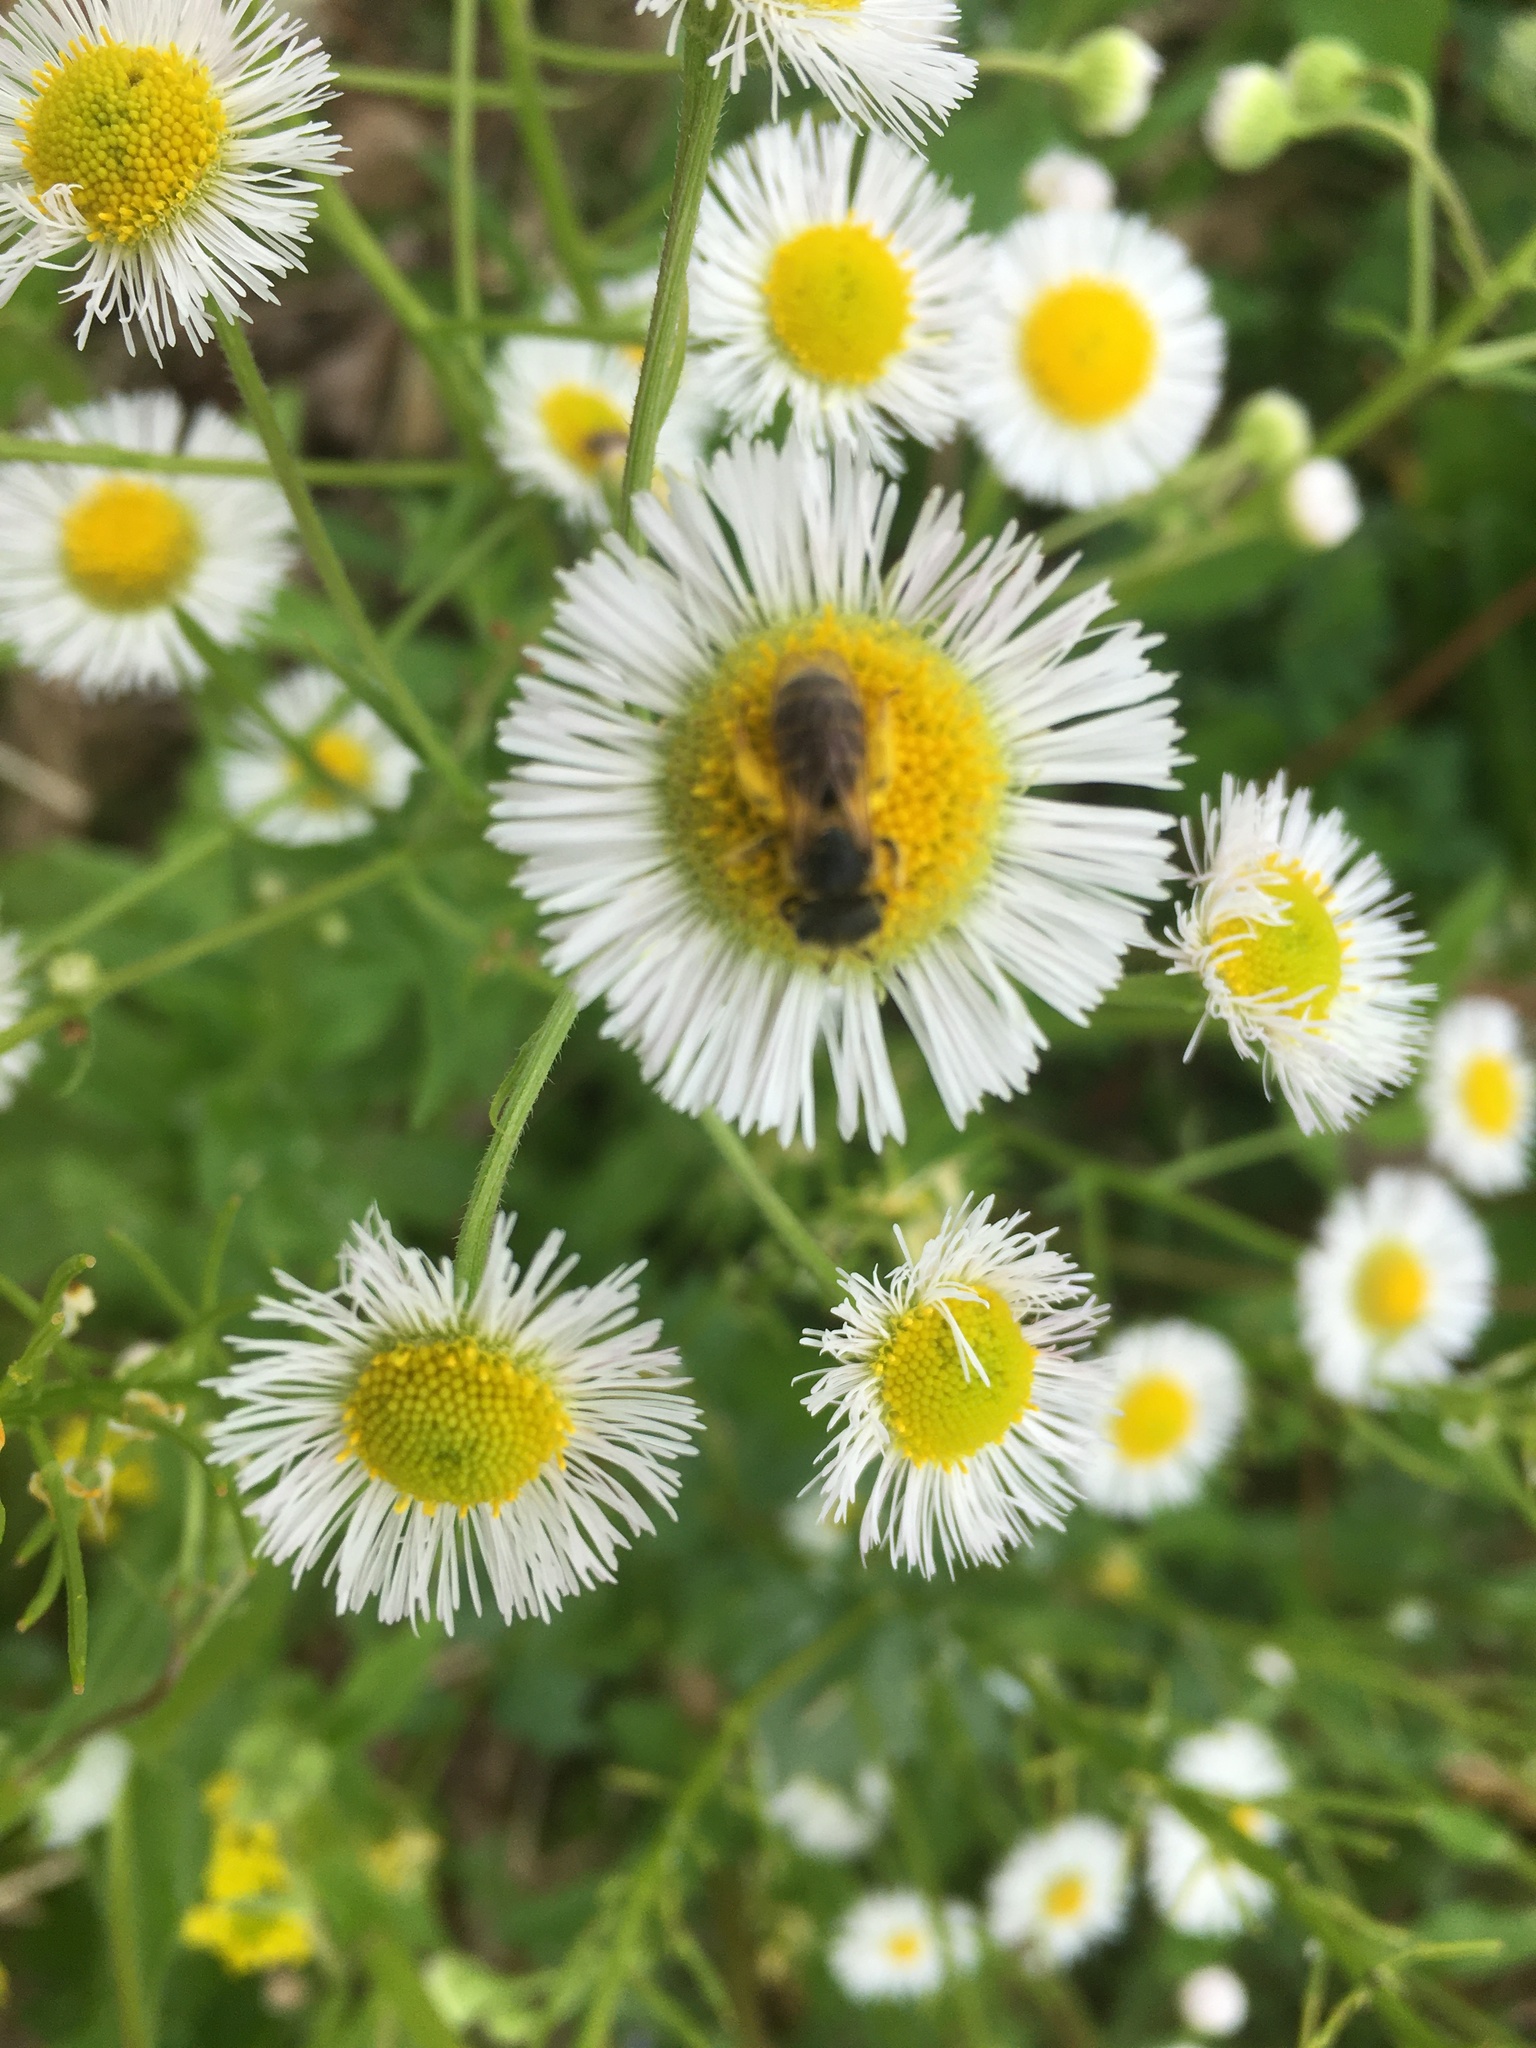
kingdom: Animalia
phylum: Arthropoda
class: Insecta
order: Hymenoptera
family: Halictidae
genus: Halictus
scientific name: Halictus ligatus
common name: Ligated furrow bee
